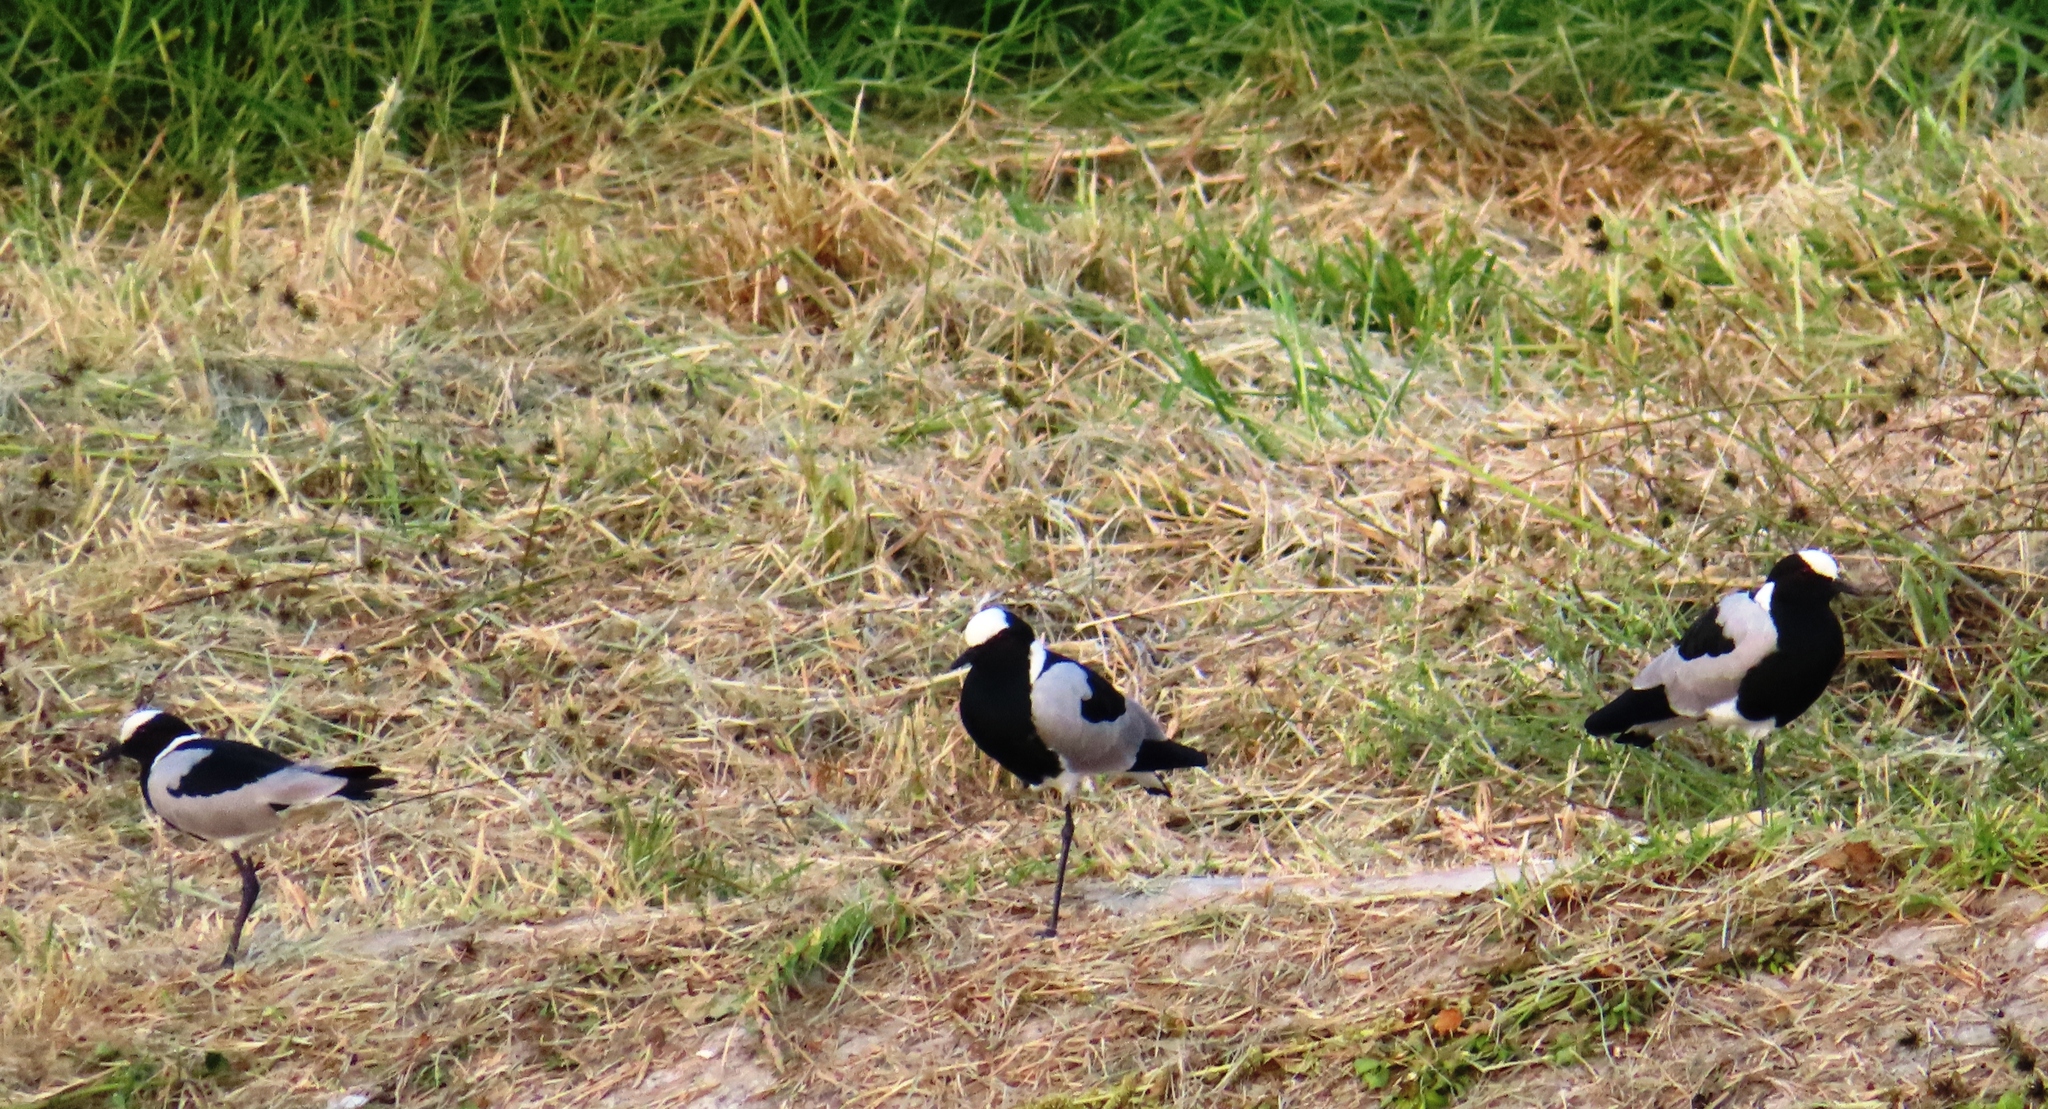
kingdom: Animalia
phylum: Chordata
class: Aves
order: Charadriiformes
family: Charadriidae
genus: Vanellus
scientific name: Vanellus armatus
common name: Blacksmith lapwing
